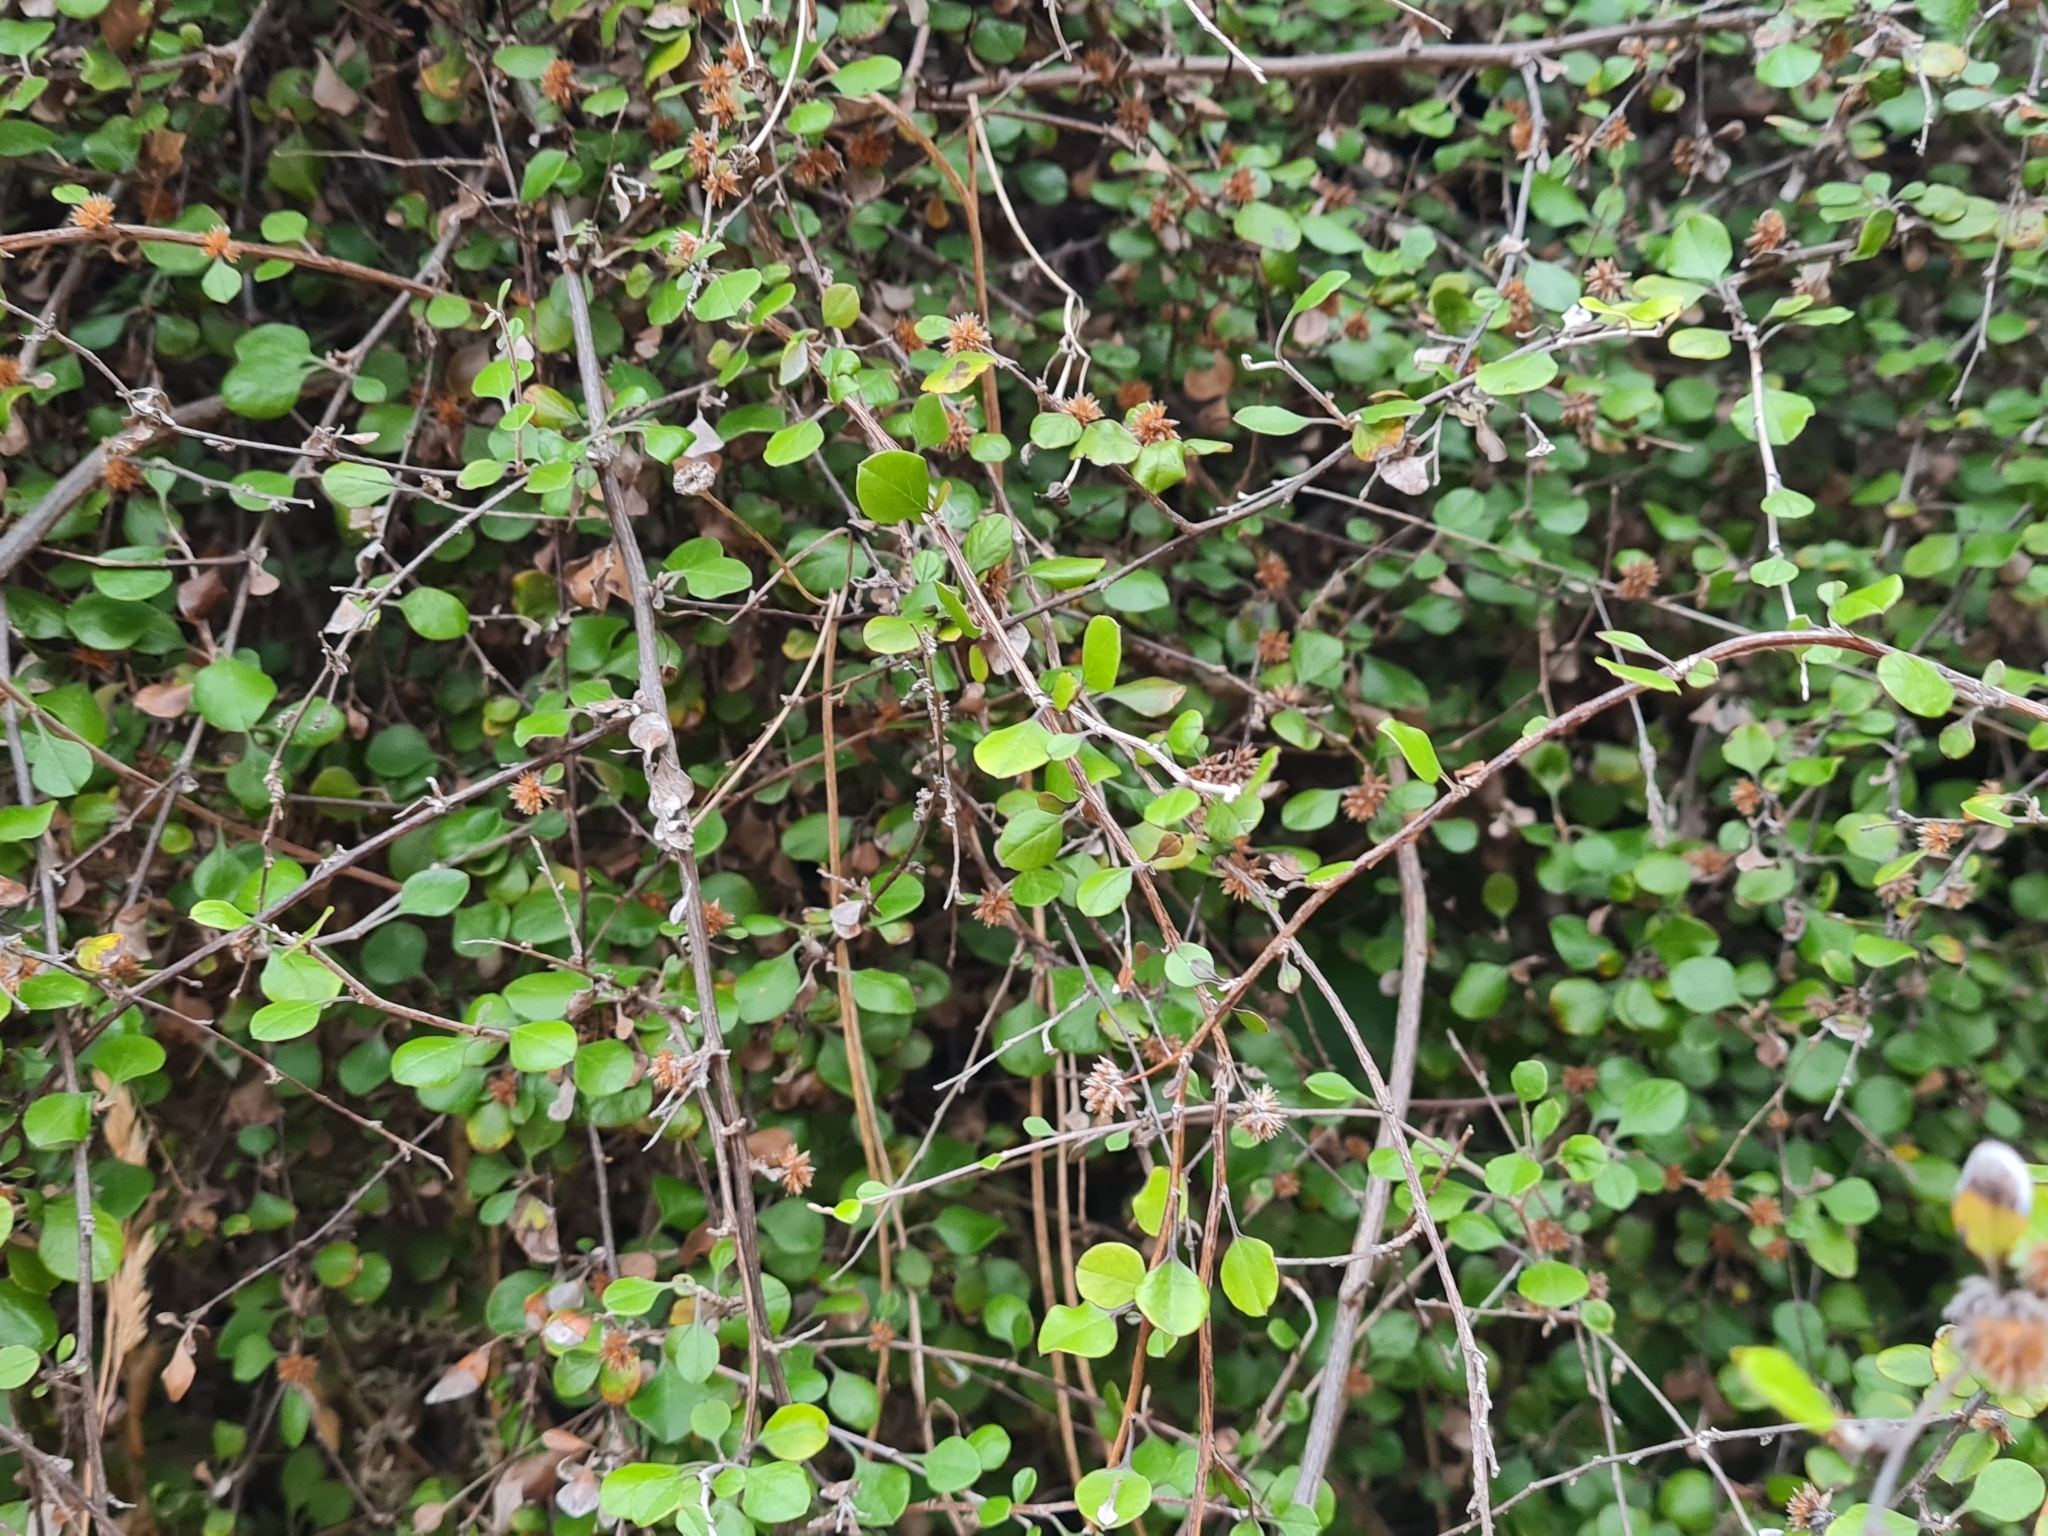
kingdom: Plantae
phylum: Tracheophyta
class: Magnoliopsida
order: Asterales
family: Asteraceae
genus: Ozothamnus
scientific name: Ozothamnus glomeratus
